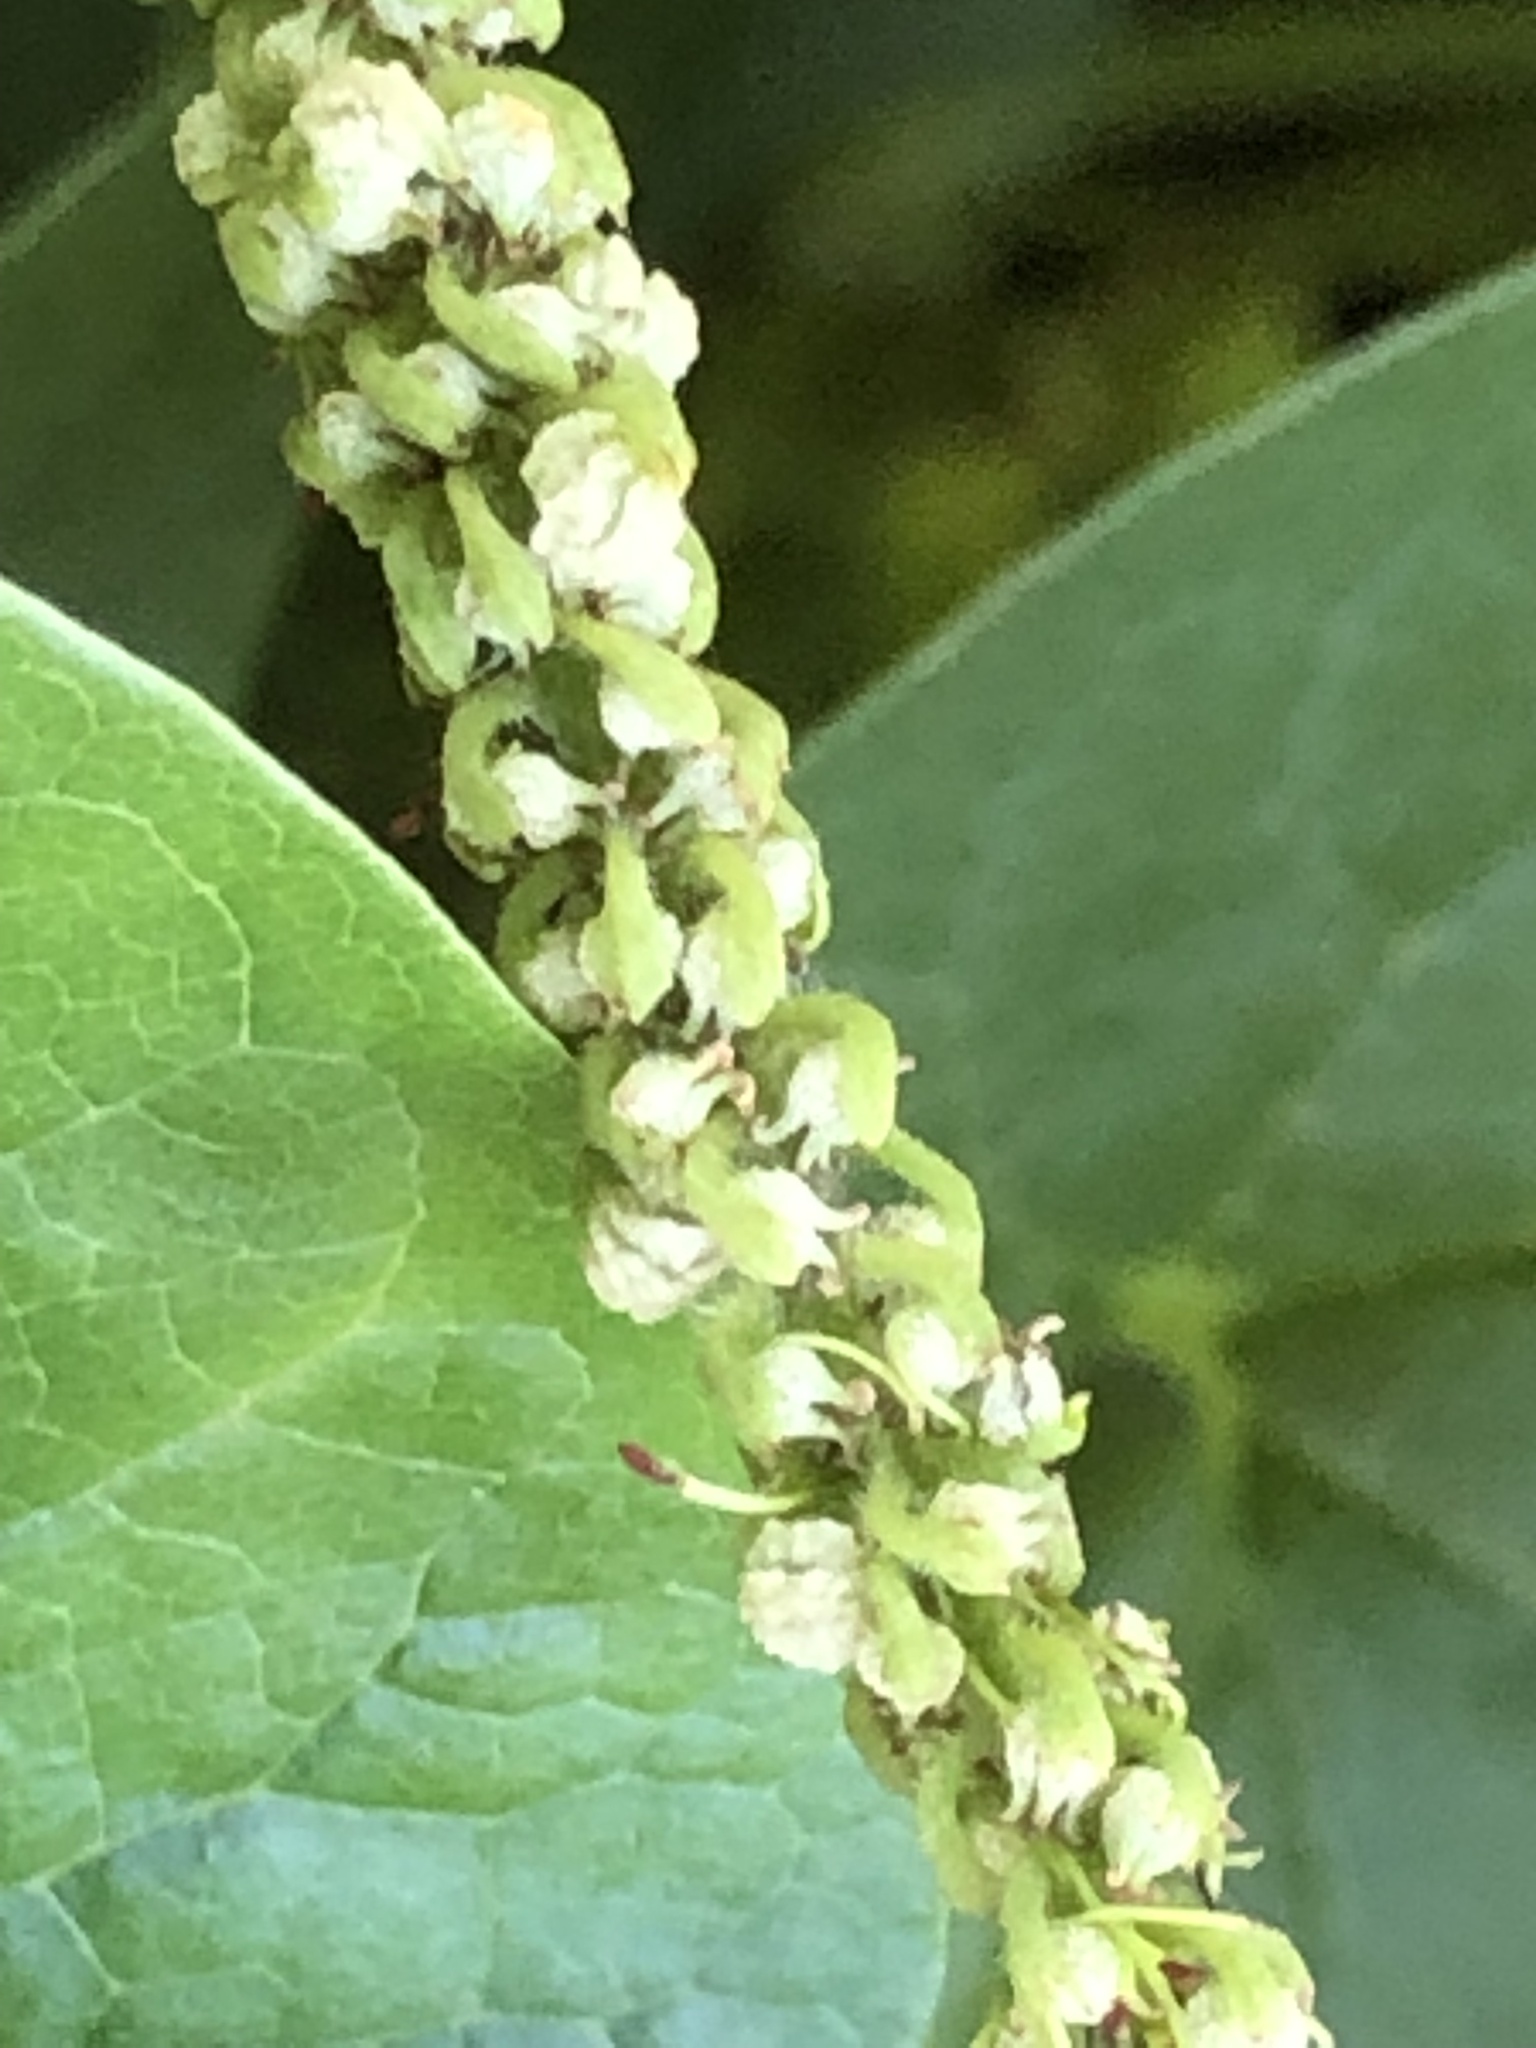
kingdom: Plantae
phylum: Tracheophyta
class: Magnoliopsida
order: Piperales
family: Saururaceae
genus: Saururus
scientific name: Saururus cernuus
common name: Lizard's-tail
